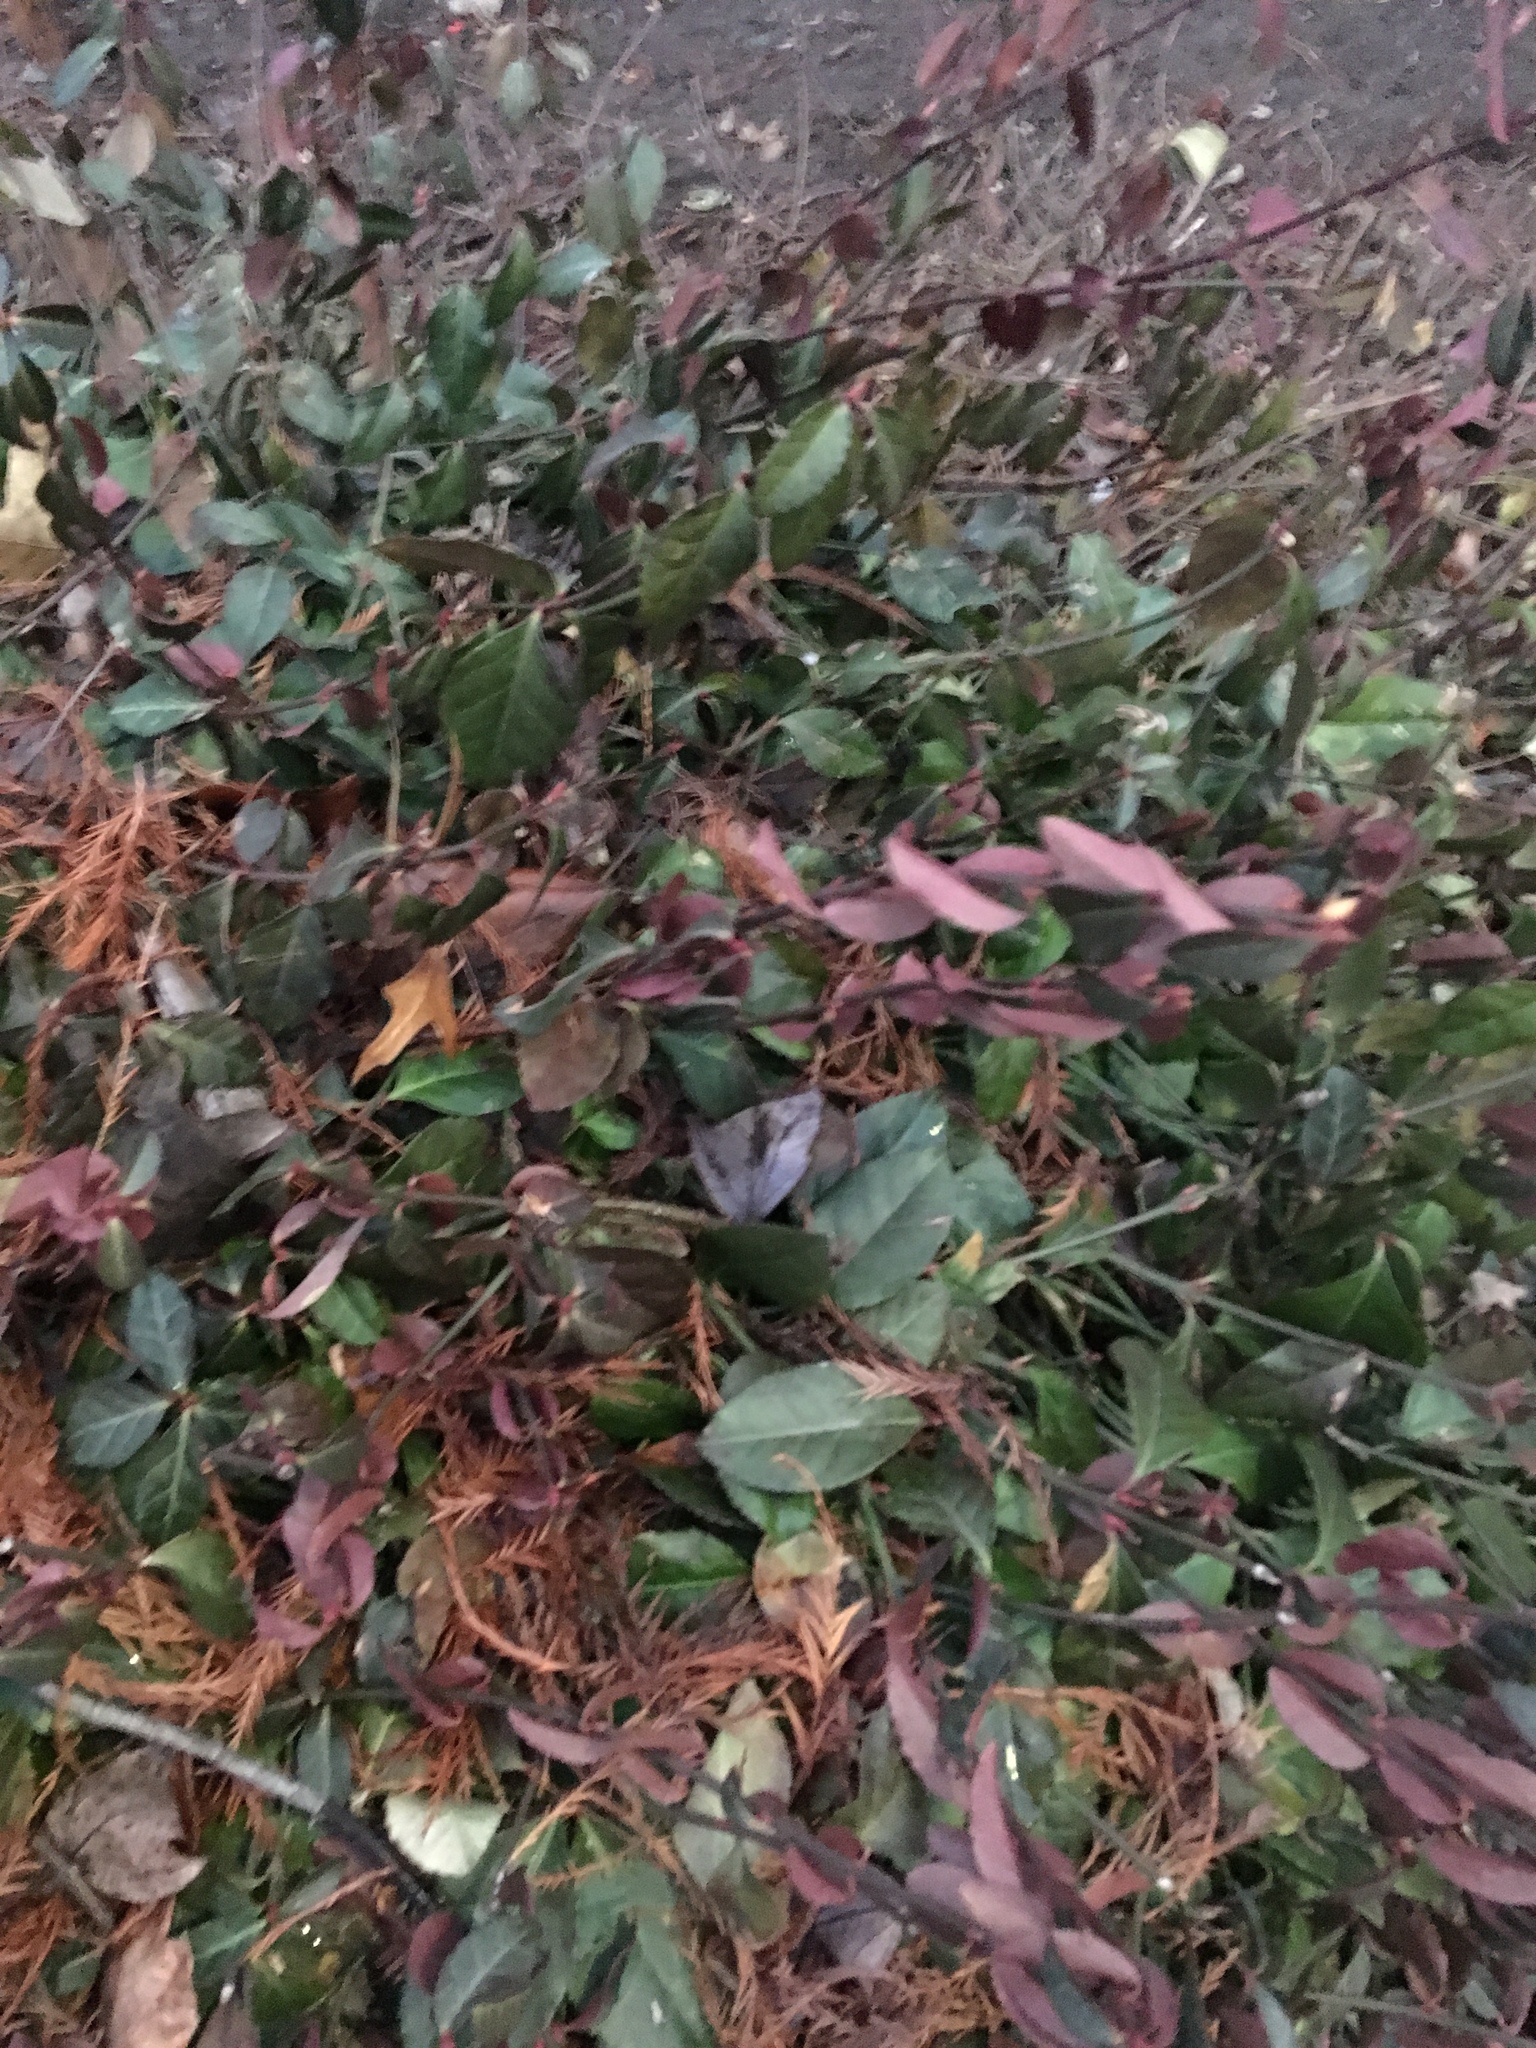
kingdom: Plantae
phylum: Tracheophyta
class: Magnoliopsida
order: Celastrales
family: Celastraceae
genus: Euonymus
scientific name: Euonymus fortunei
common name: Climbing euonymus
